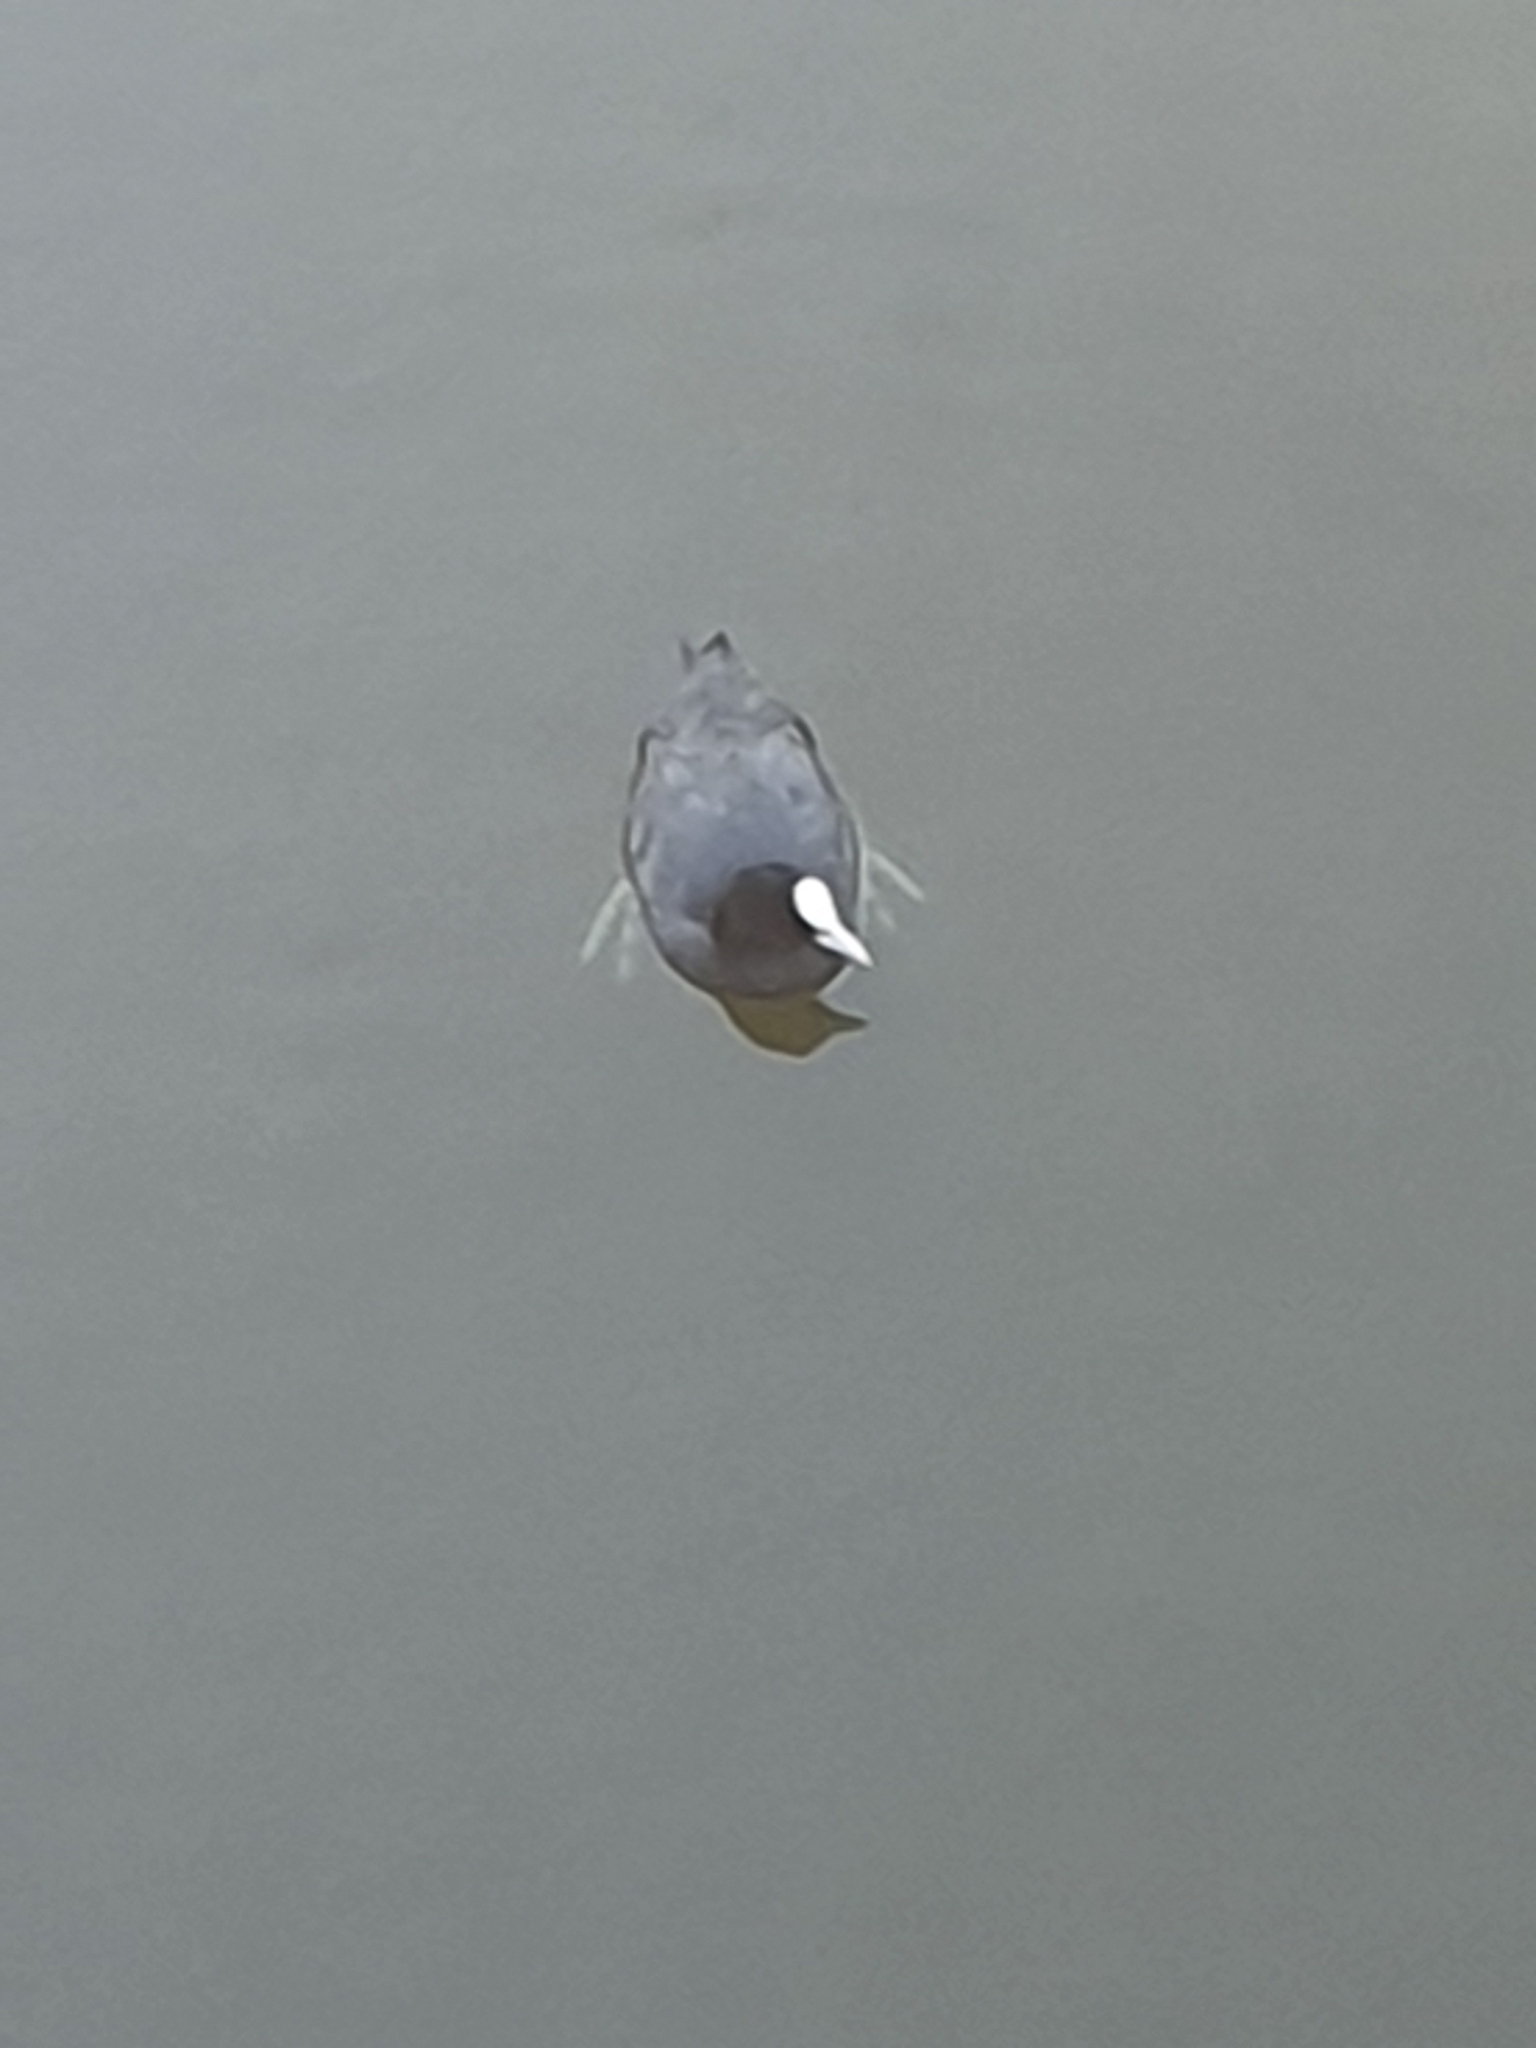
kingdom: Animalia
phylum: Chordata
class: Aves
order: Gruiformes
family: Rallidae
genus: Fulica
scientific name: Fulica atra
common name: Eurasian coot
